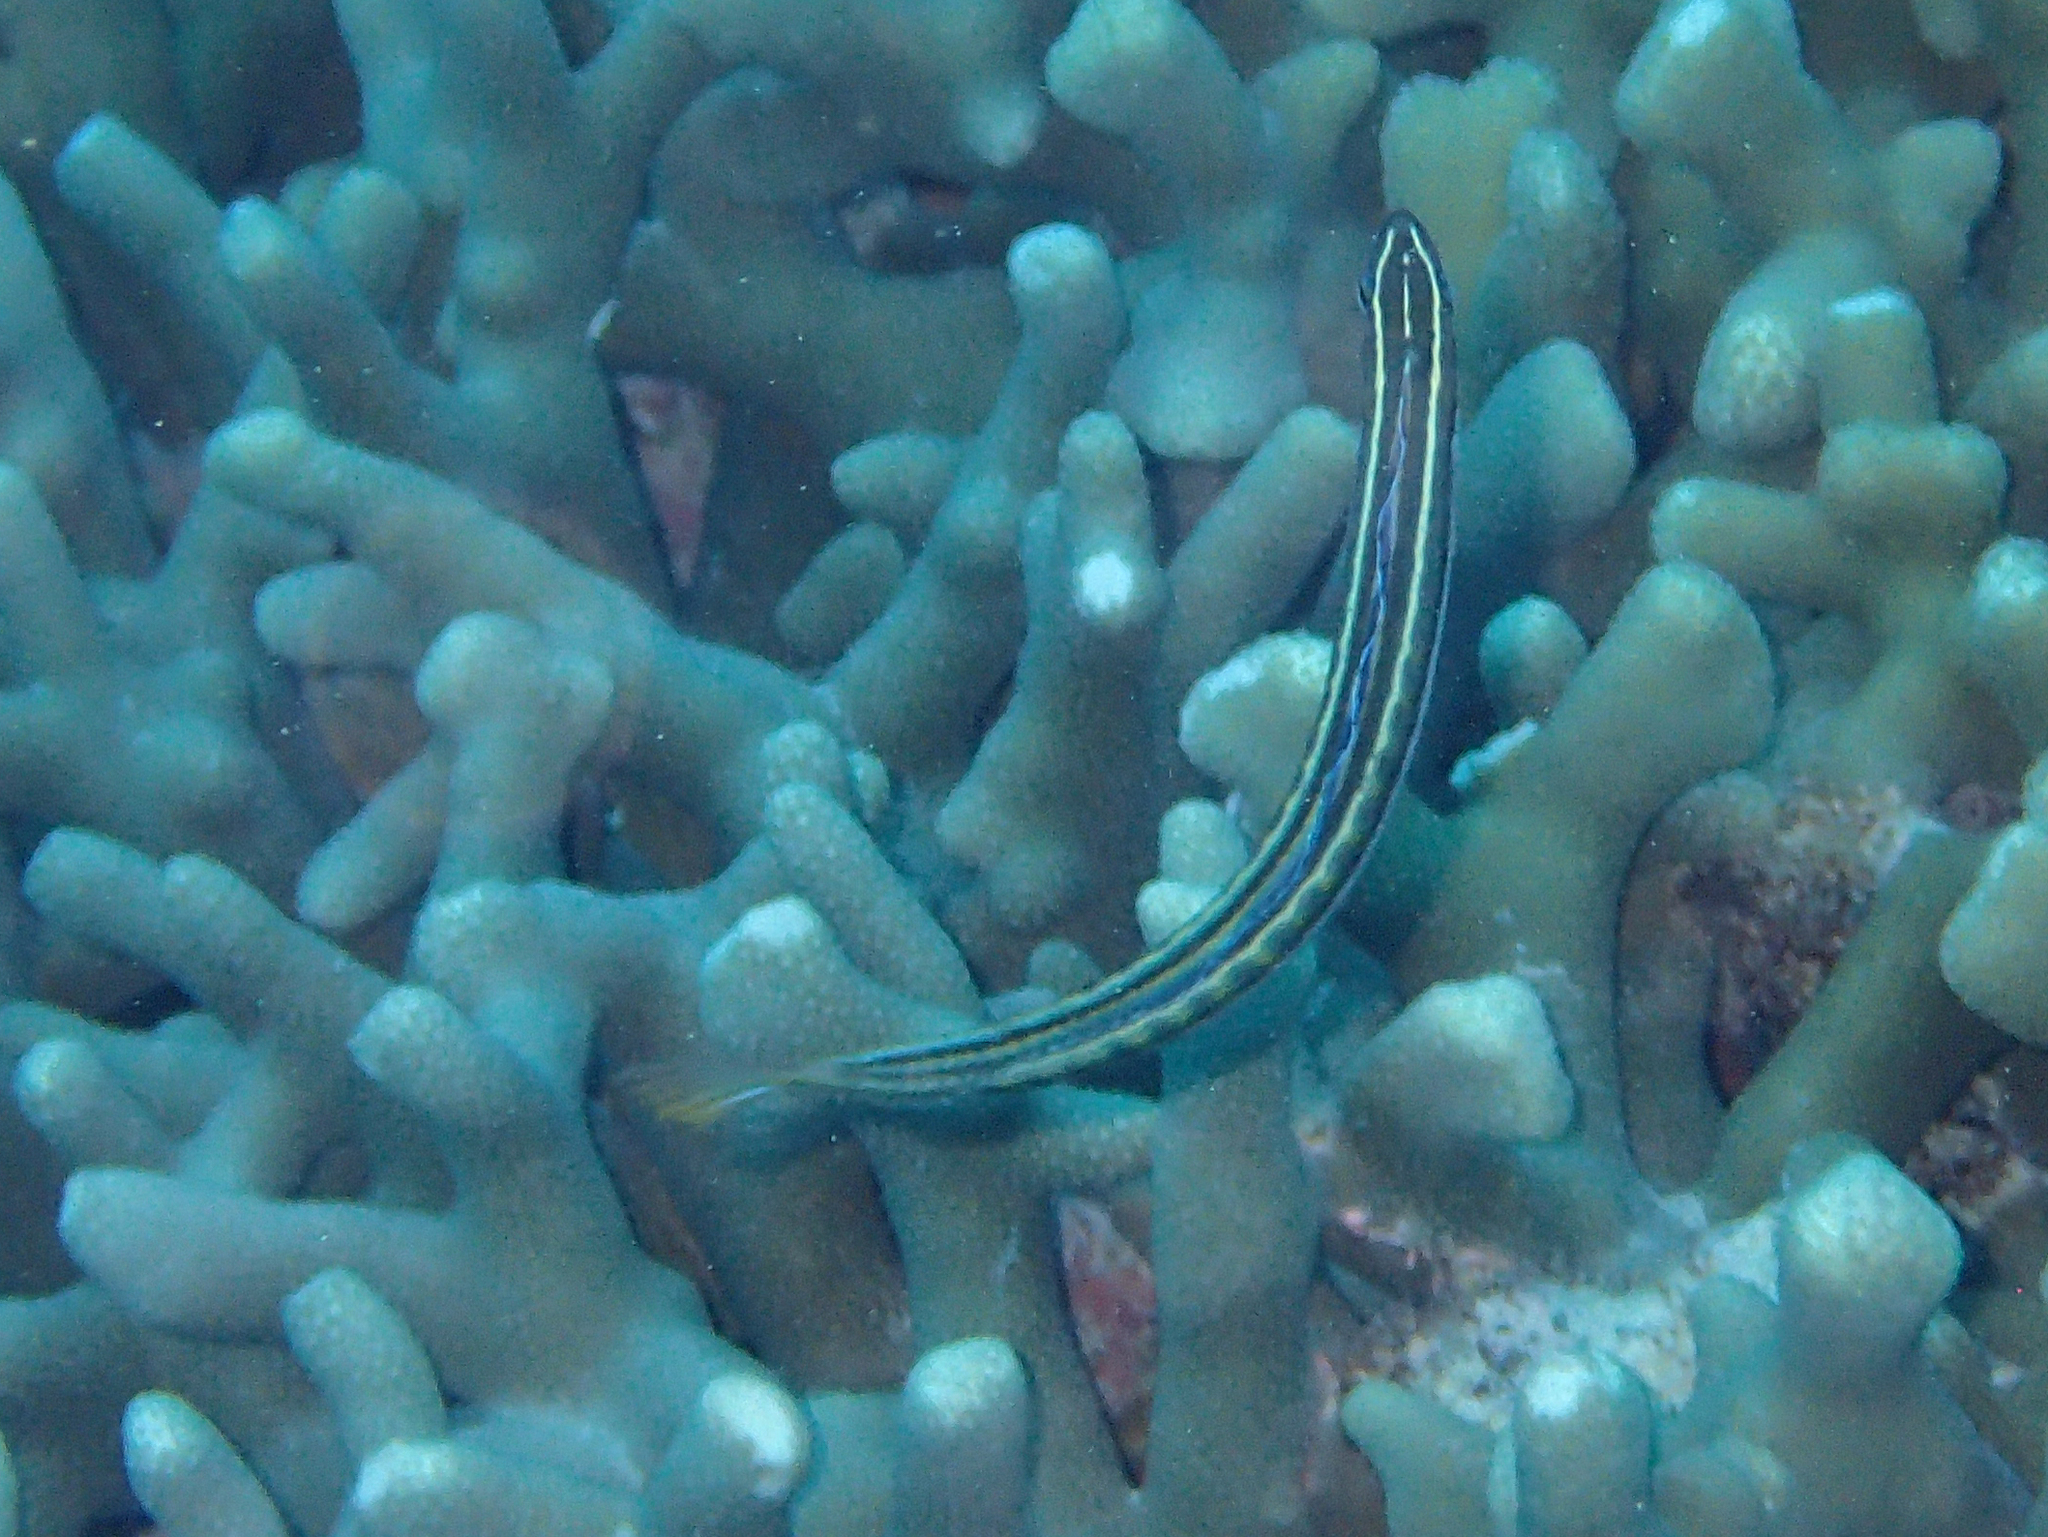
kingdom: Animalia
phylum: Chordata
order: Perciformes
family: Blenniidae
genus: Plagiotremus
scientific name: Plagiotremus tapeinosoma
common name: Hit and run blenny
